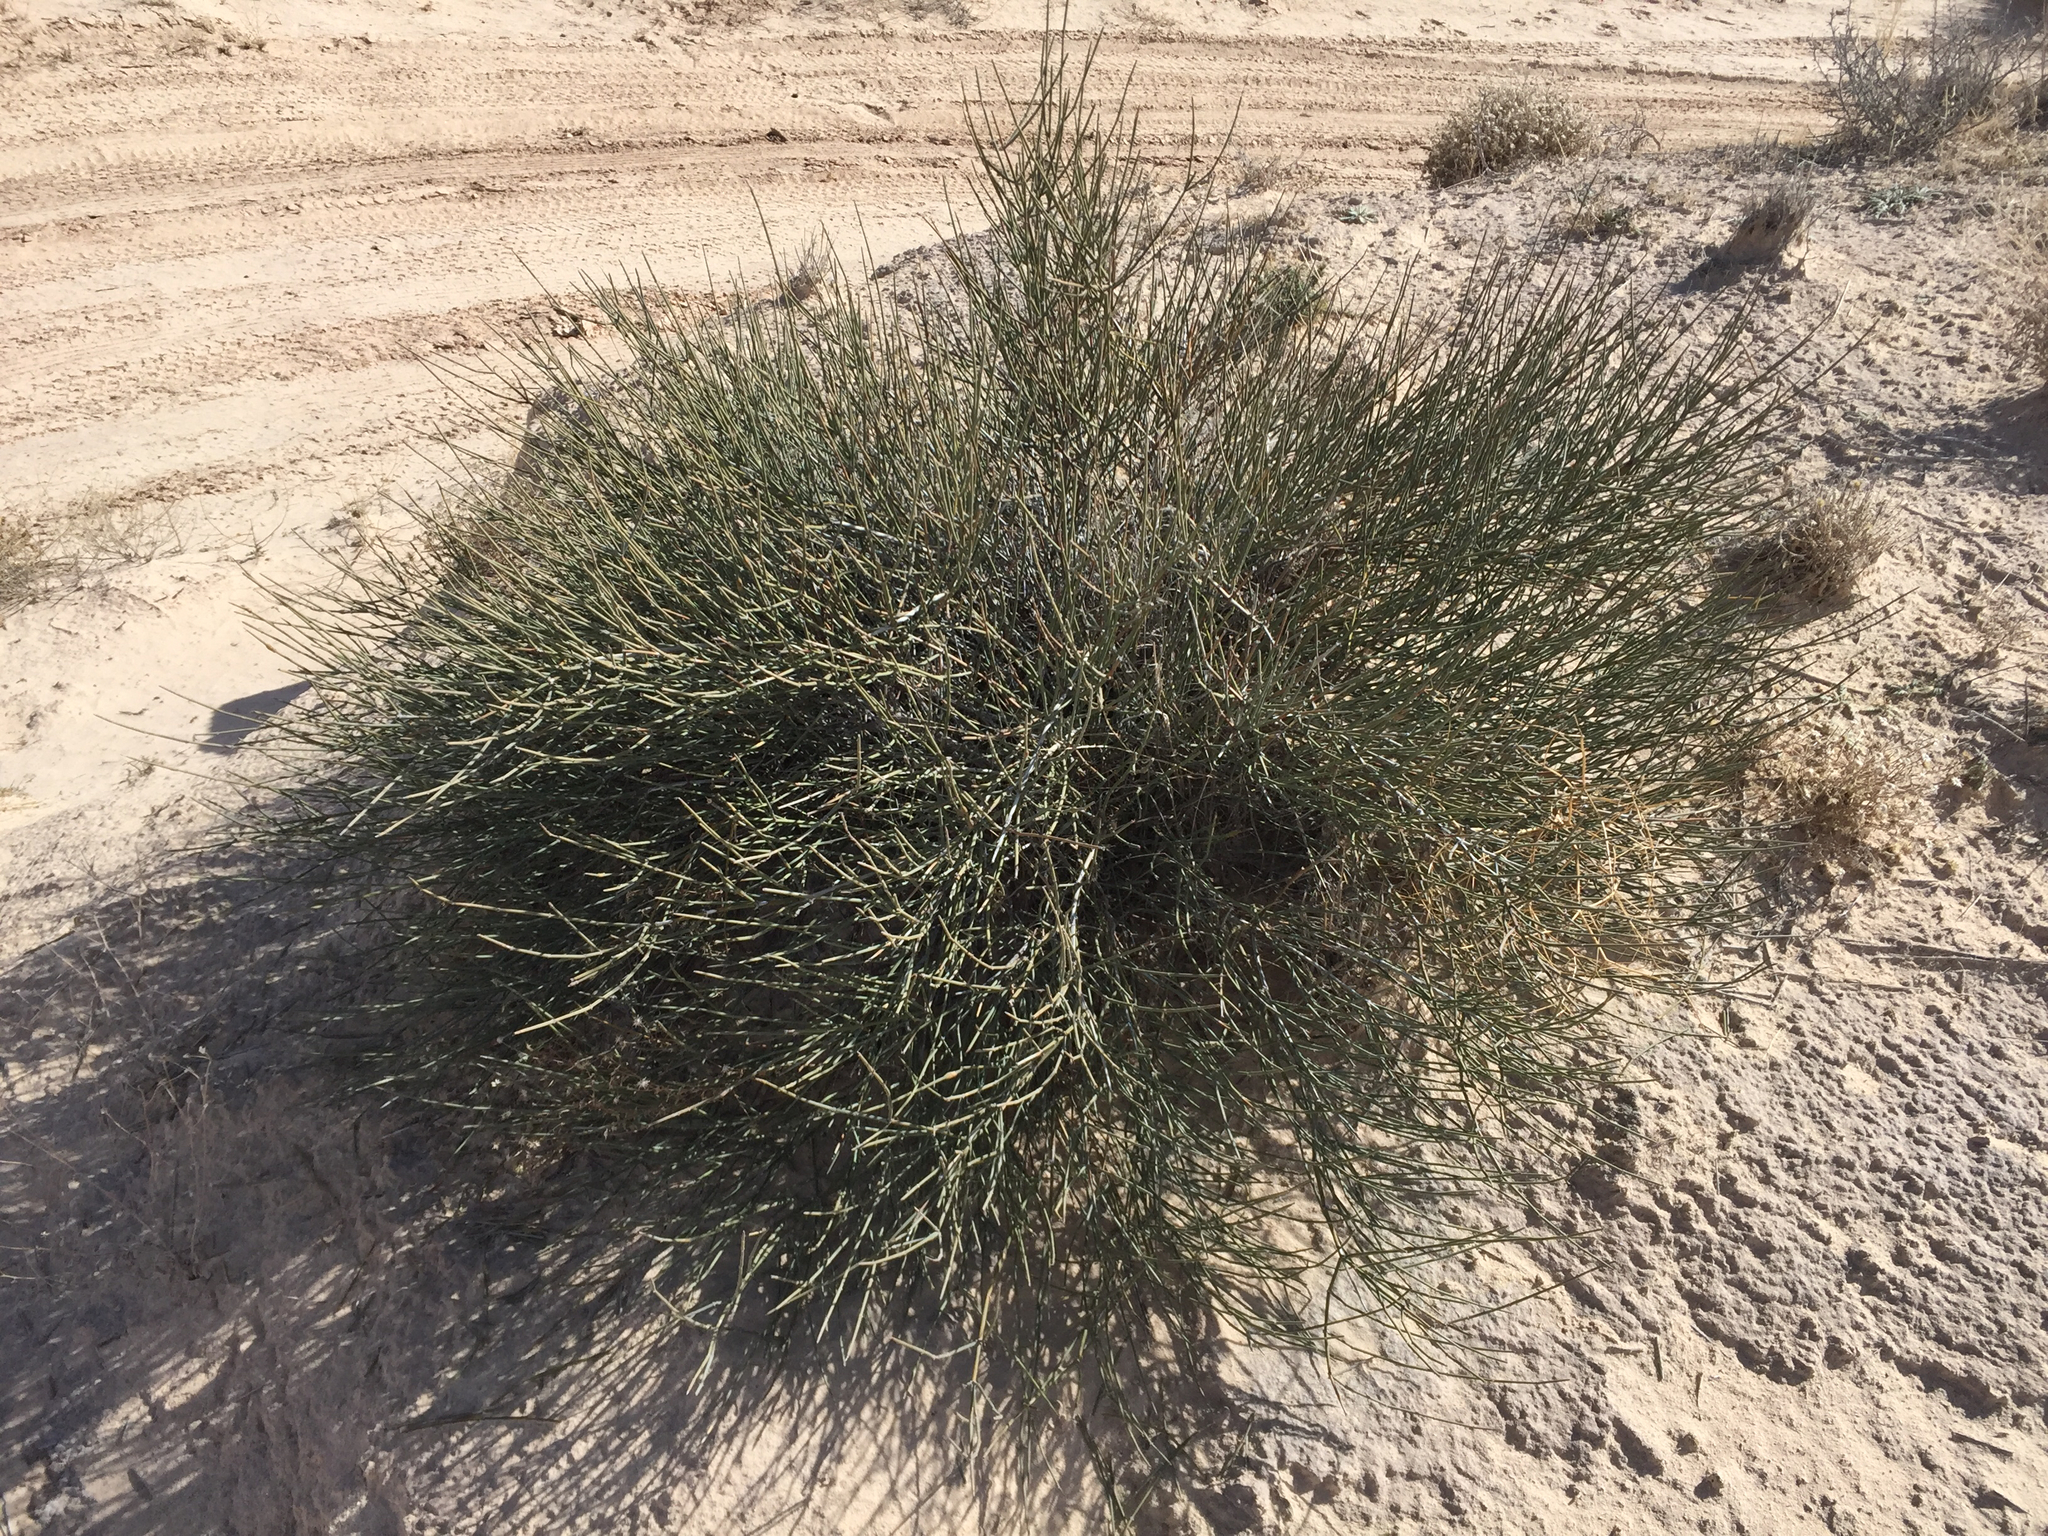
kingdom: Plantae
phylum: Tracheophyta
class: Gnetopsida
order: Ephedrales
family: Ephedraceae
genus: Ephedra
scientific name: Ephedra torreyana
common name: Torrey ephedra
